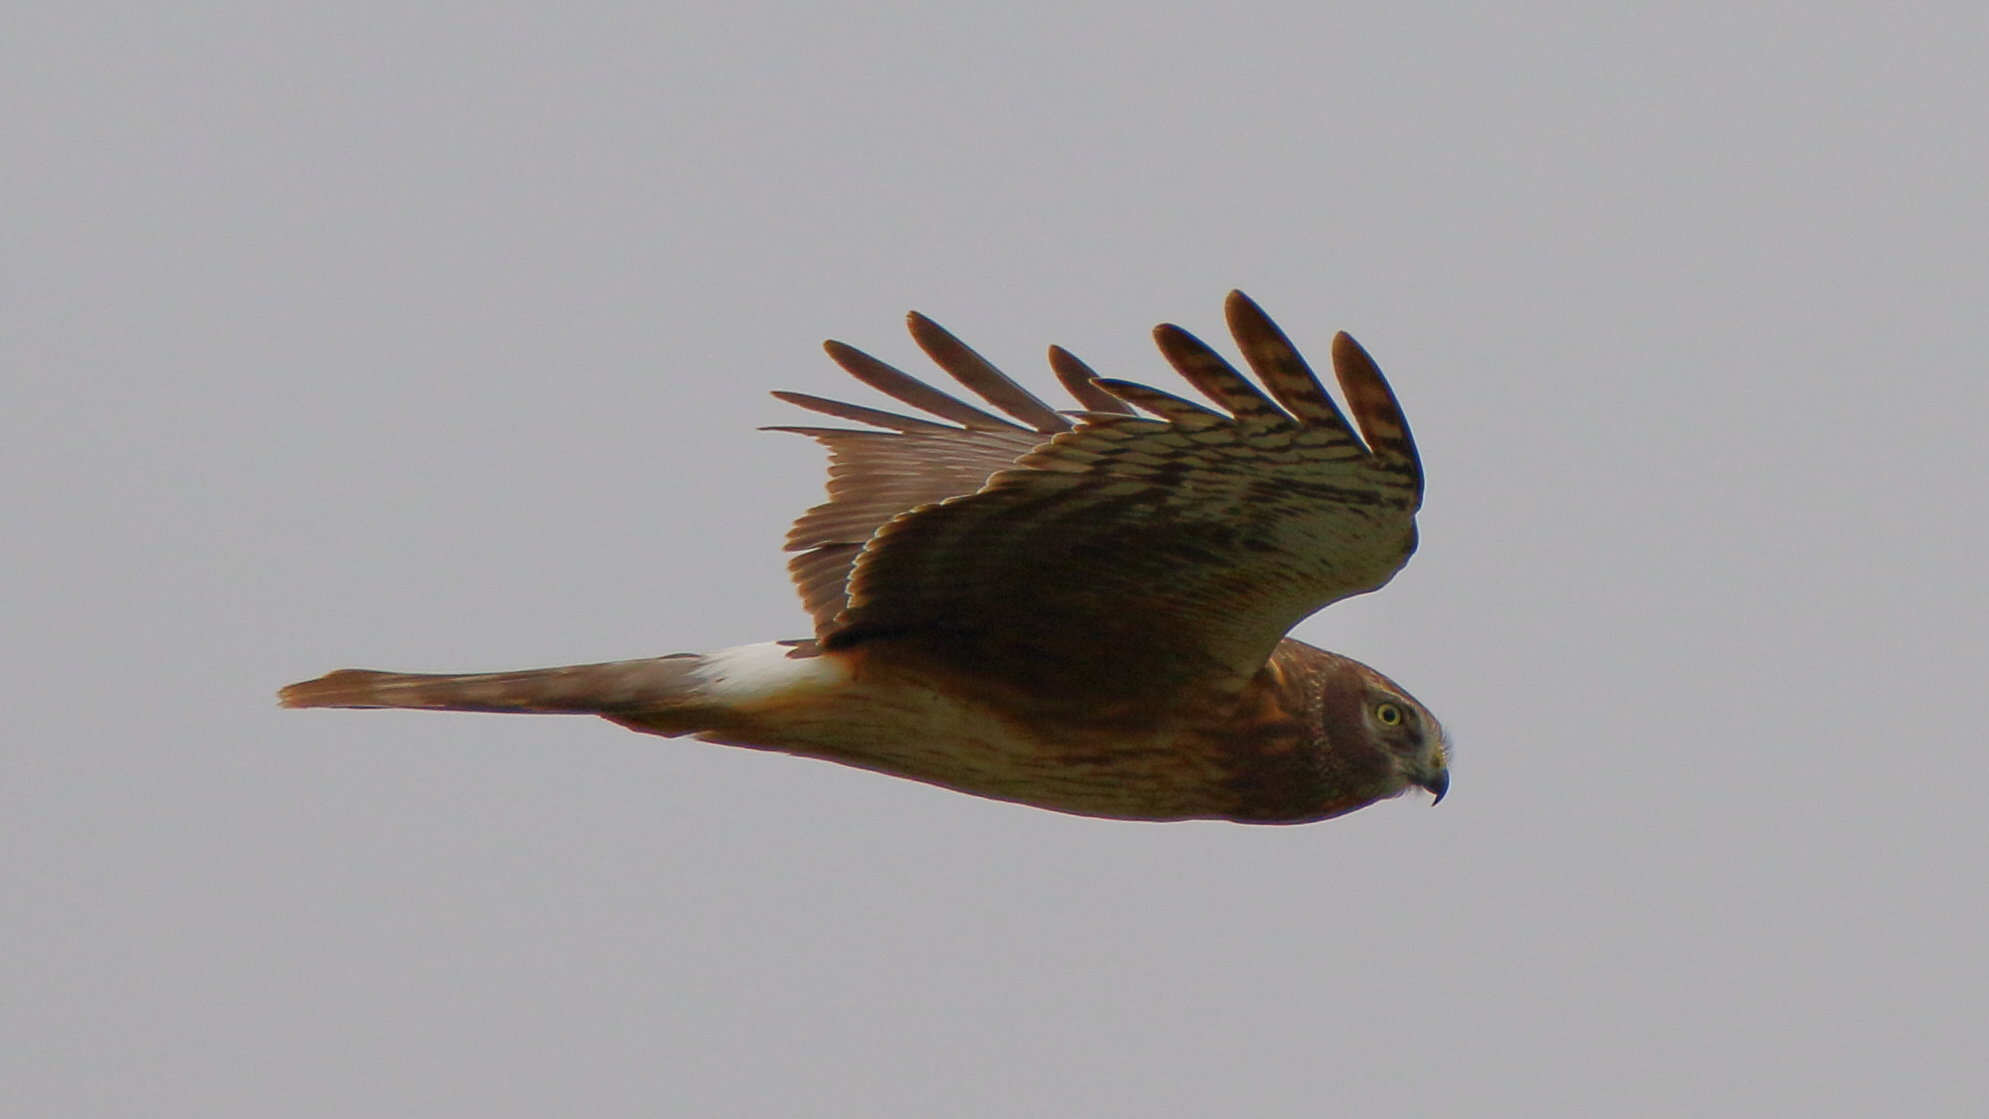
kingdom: Animalia
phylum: Chordata
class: Aves
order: Accipitriformes
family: Accipitridae
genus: Circus
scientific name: Circus cyaneus
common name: Hen harrier
